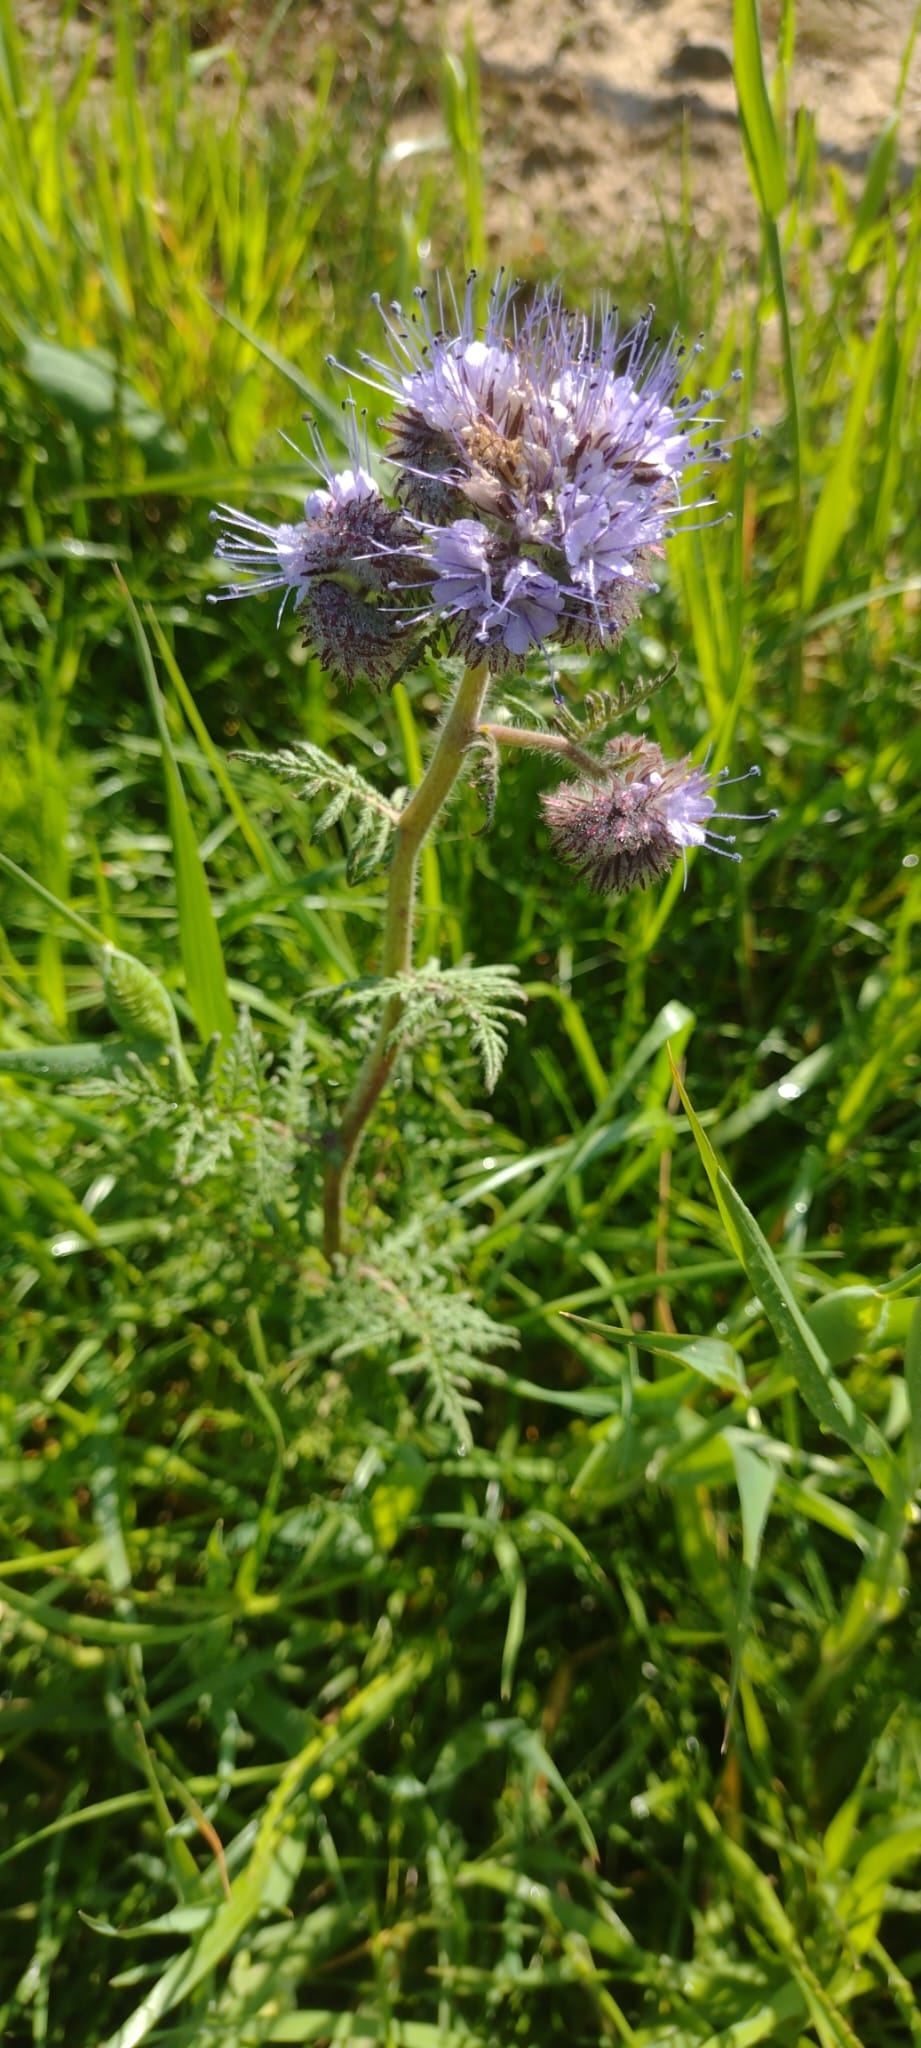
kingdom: Plantae
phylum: Tracheophyta
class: Magnoliopsida
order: Boraginales
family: Hydrophyllaceae
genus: Phacelia
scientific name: Phacelia tanacetifolia
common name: Phacelia
